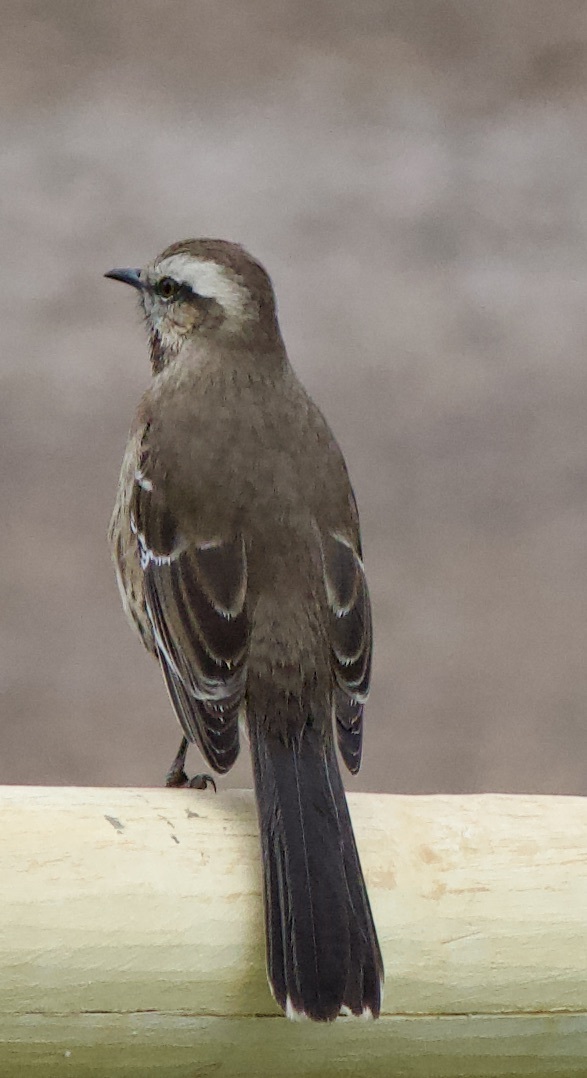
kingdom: Animalia
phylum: Chordata
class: Aves
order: Passeriformes
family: Mimidae
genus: Mimus
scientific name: Mimus thenca
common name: Chilean mockingbird
